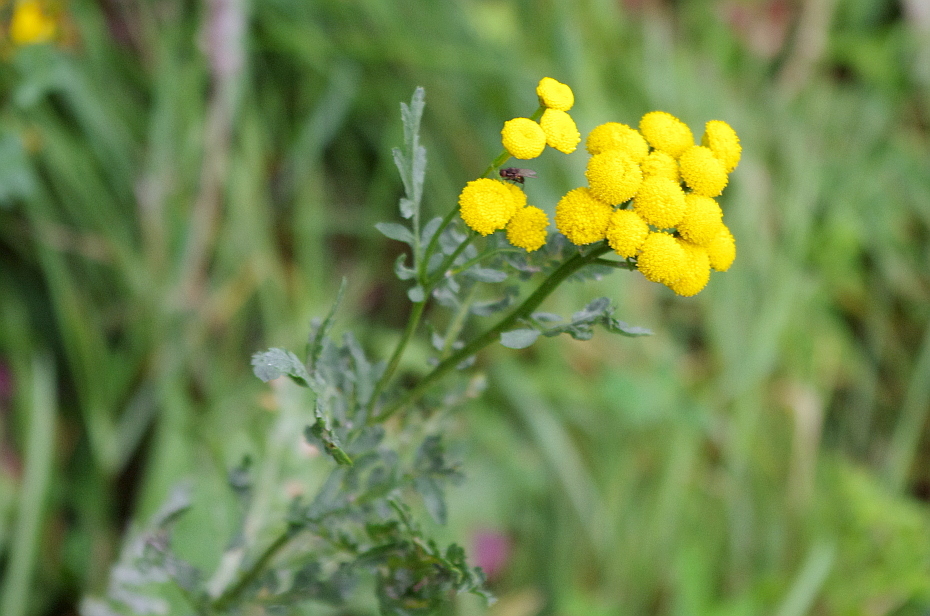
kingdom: Plantae
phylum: Tracheophyta
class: Magnoliopsida
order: Asterales
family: Asteraceae
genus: Tanacetum
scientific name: Tanacetum vulgare
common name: Common tansy
